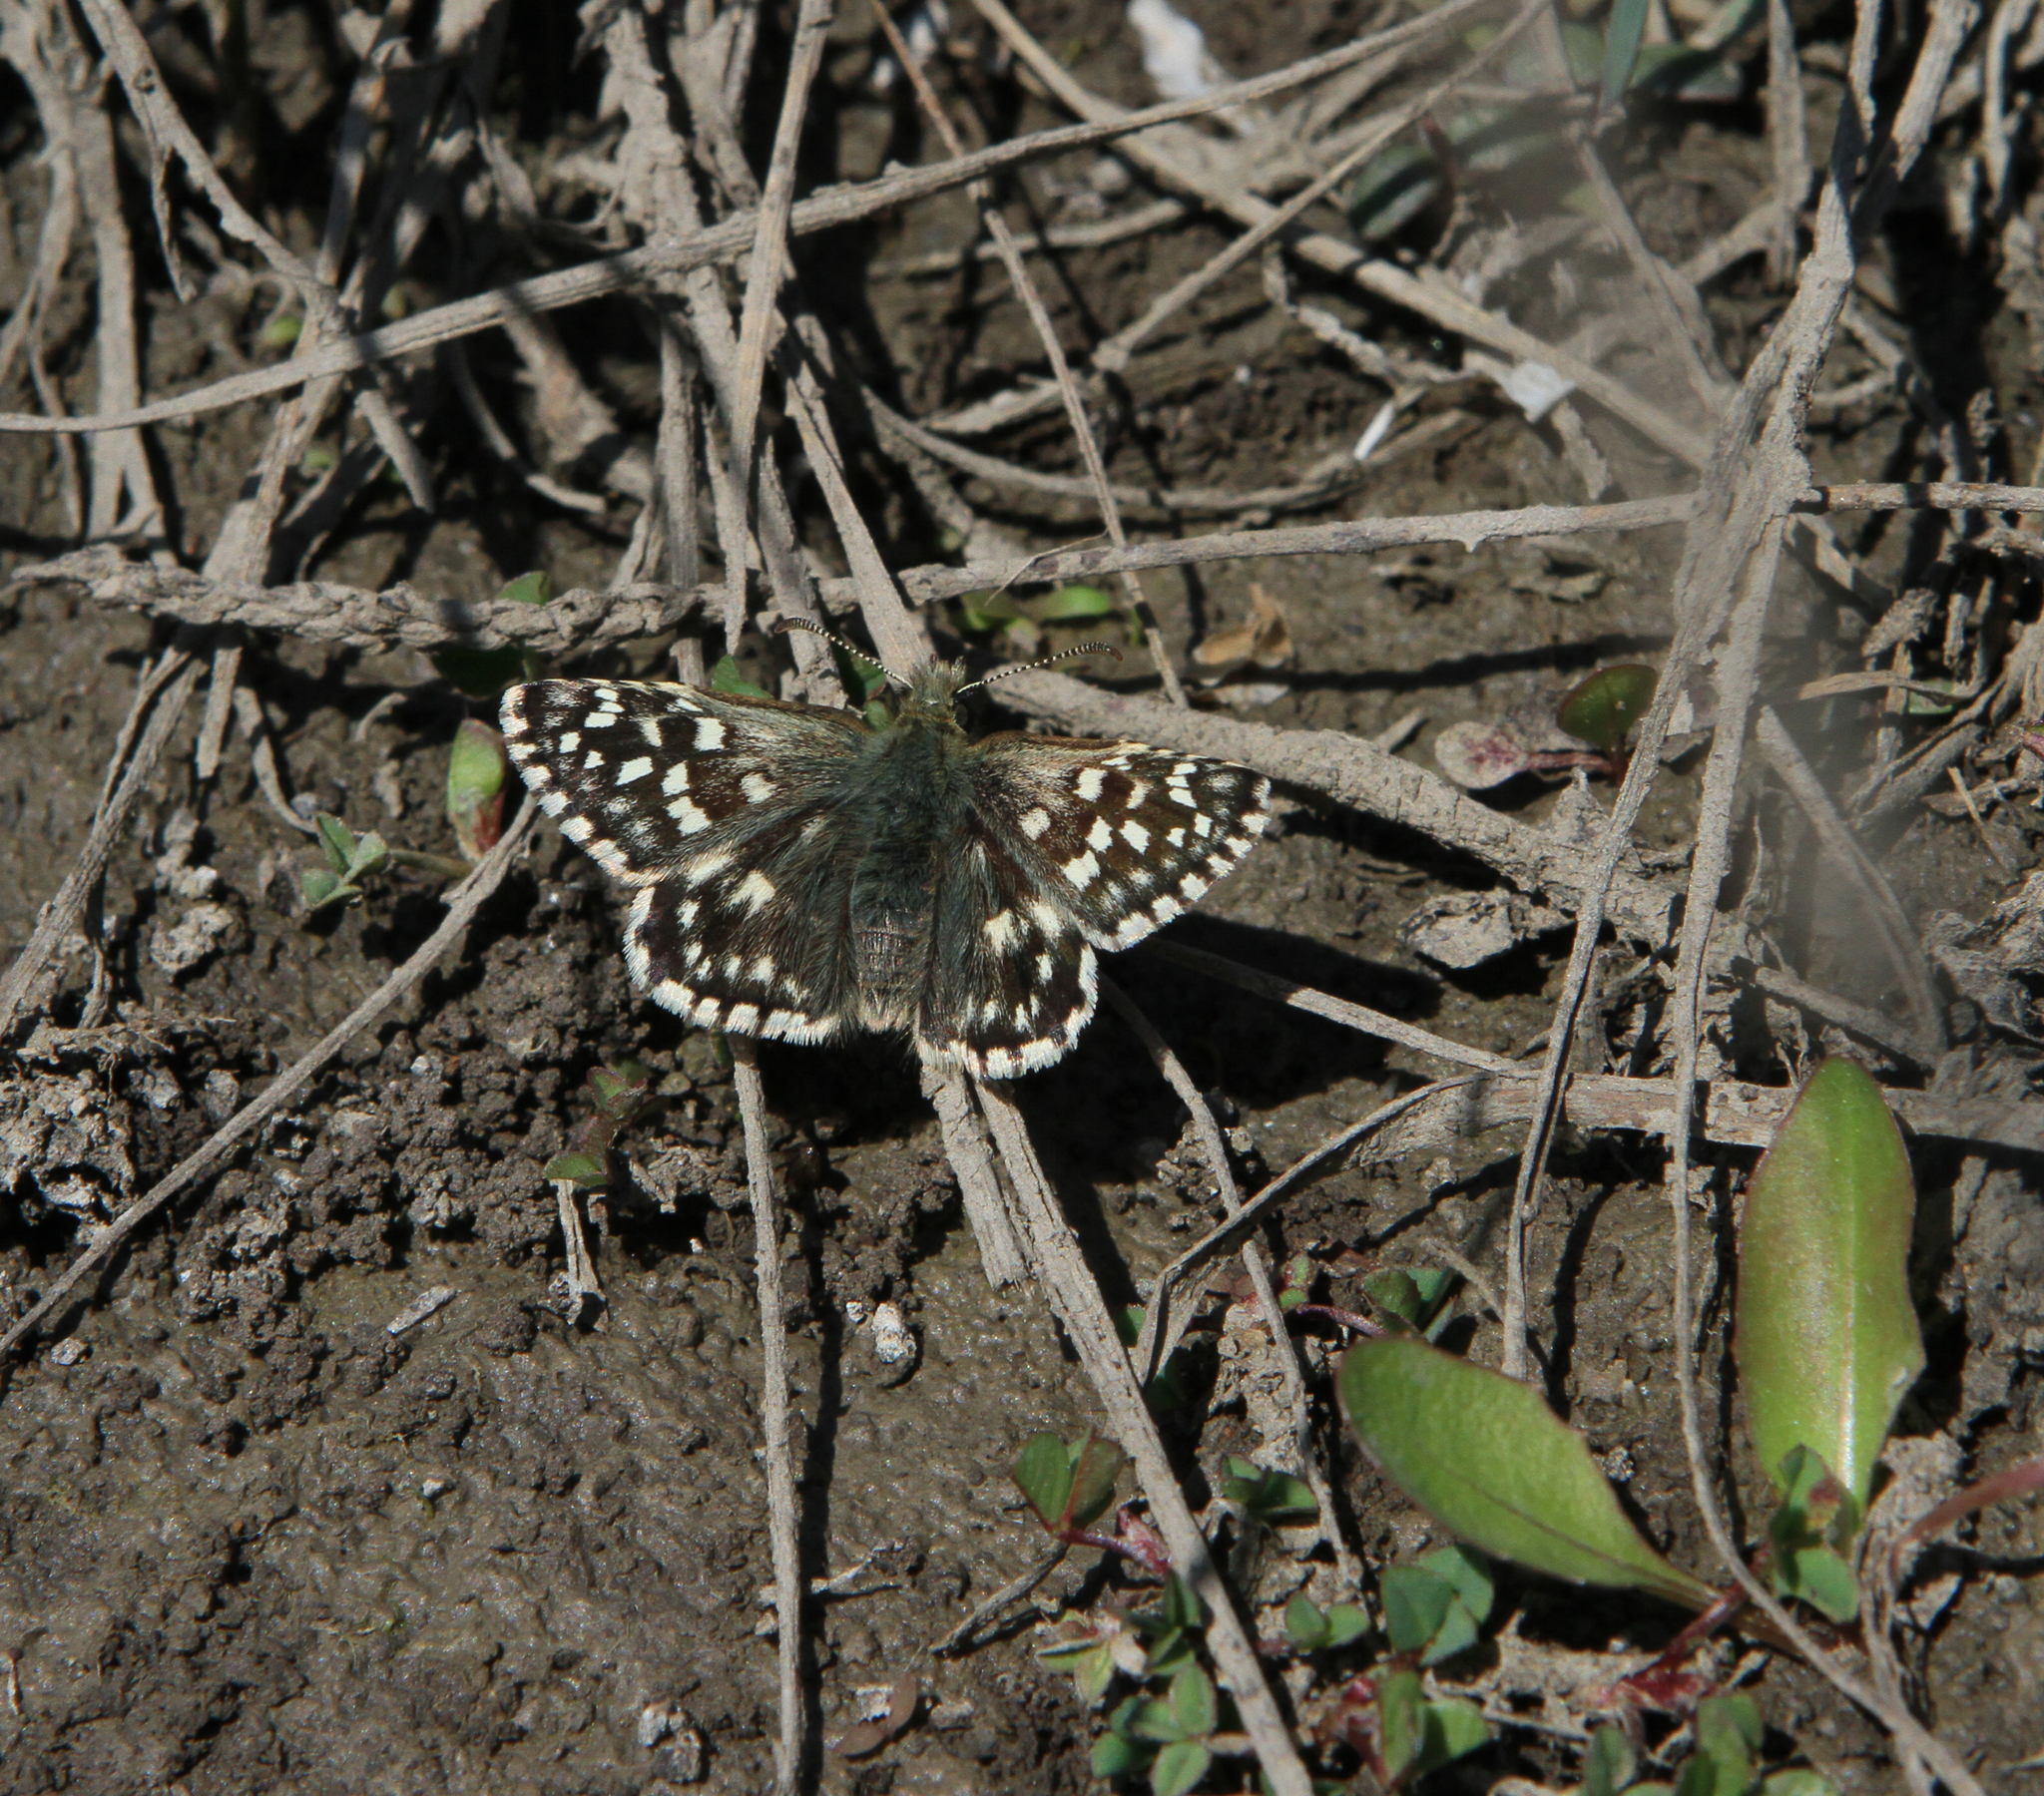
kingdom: Animalia
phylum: Arthropoda
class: Insecta
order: Lepidoptera
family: Hesperiidae
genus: Pyrgus
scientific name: Pyrgus malvae
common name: Grizzled skipper
